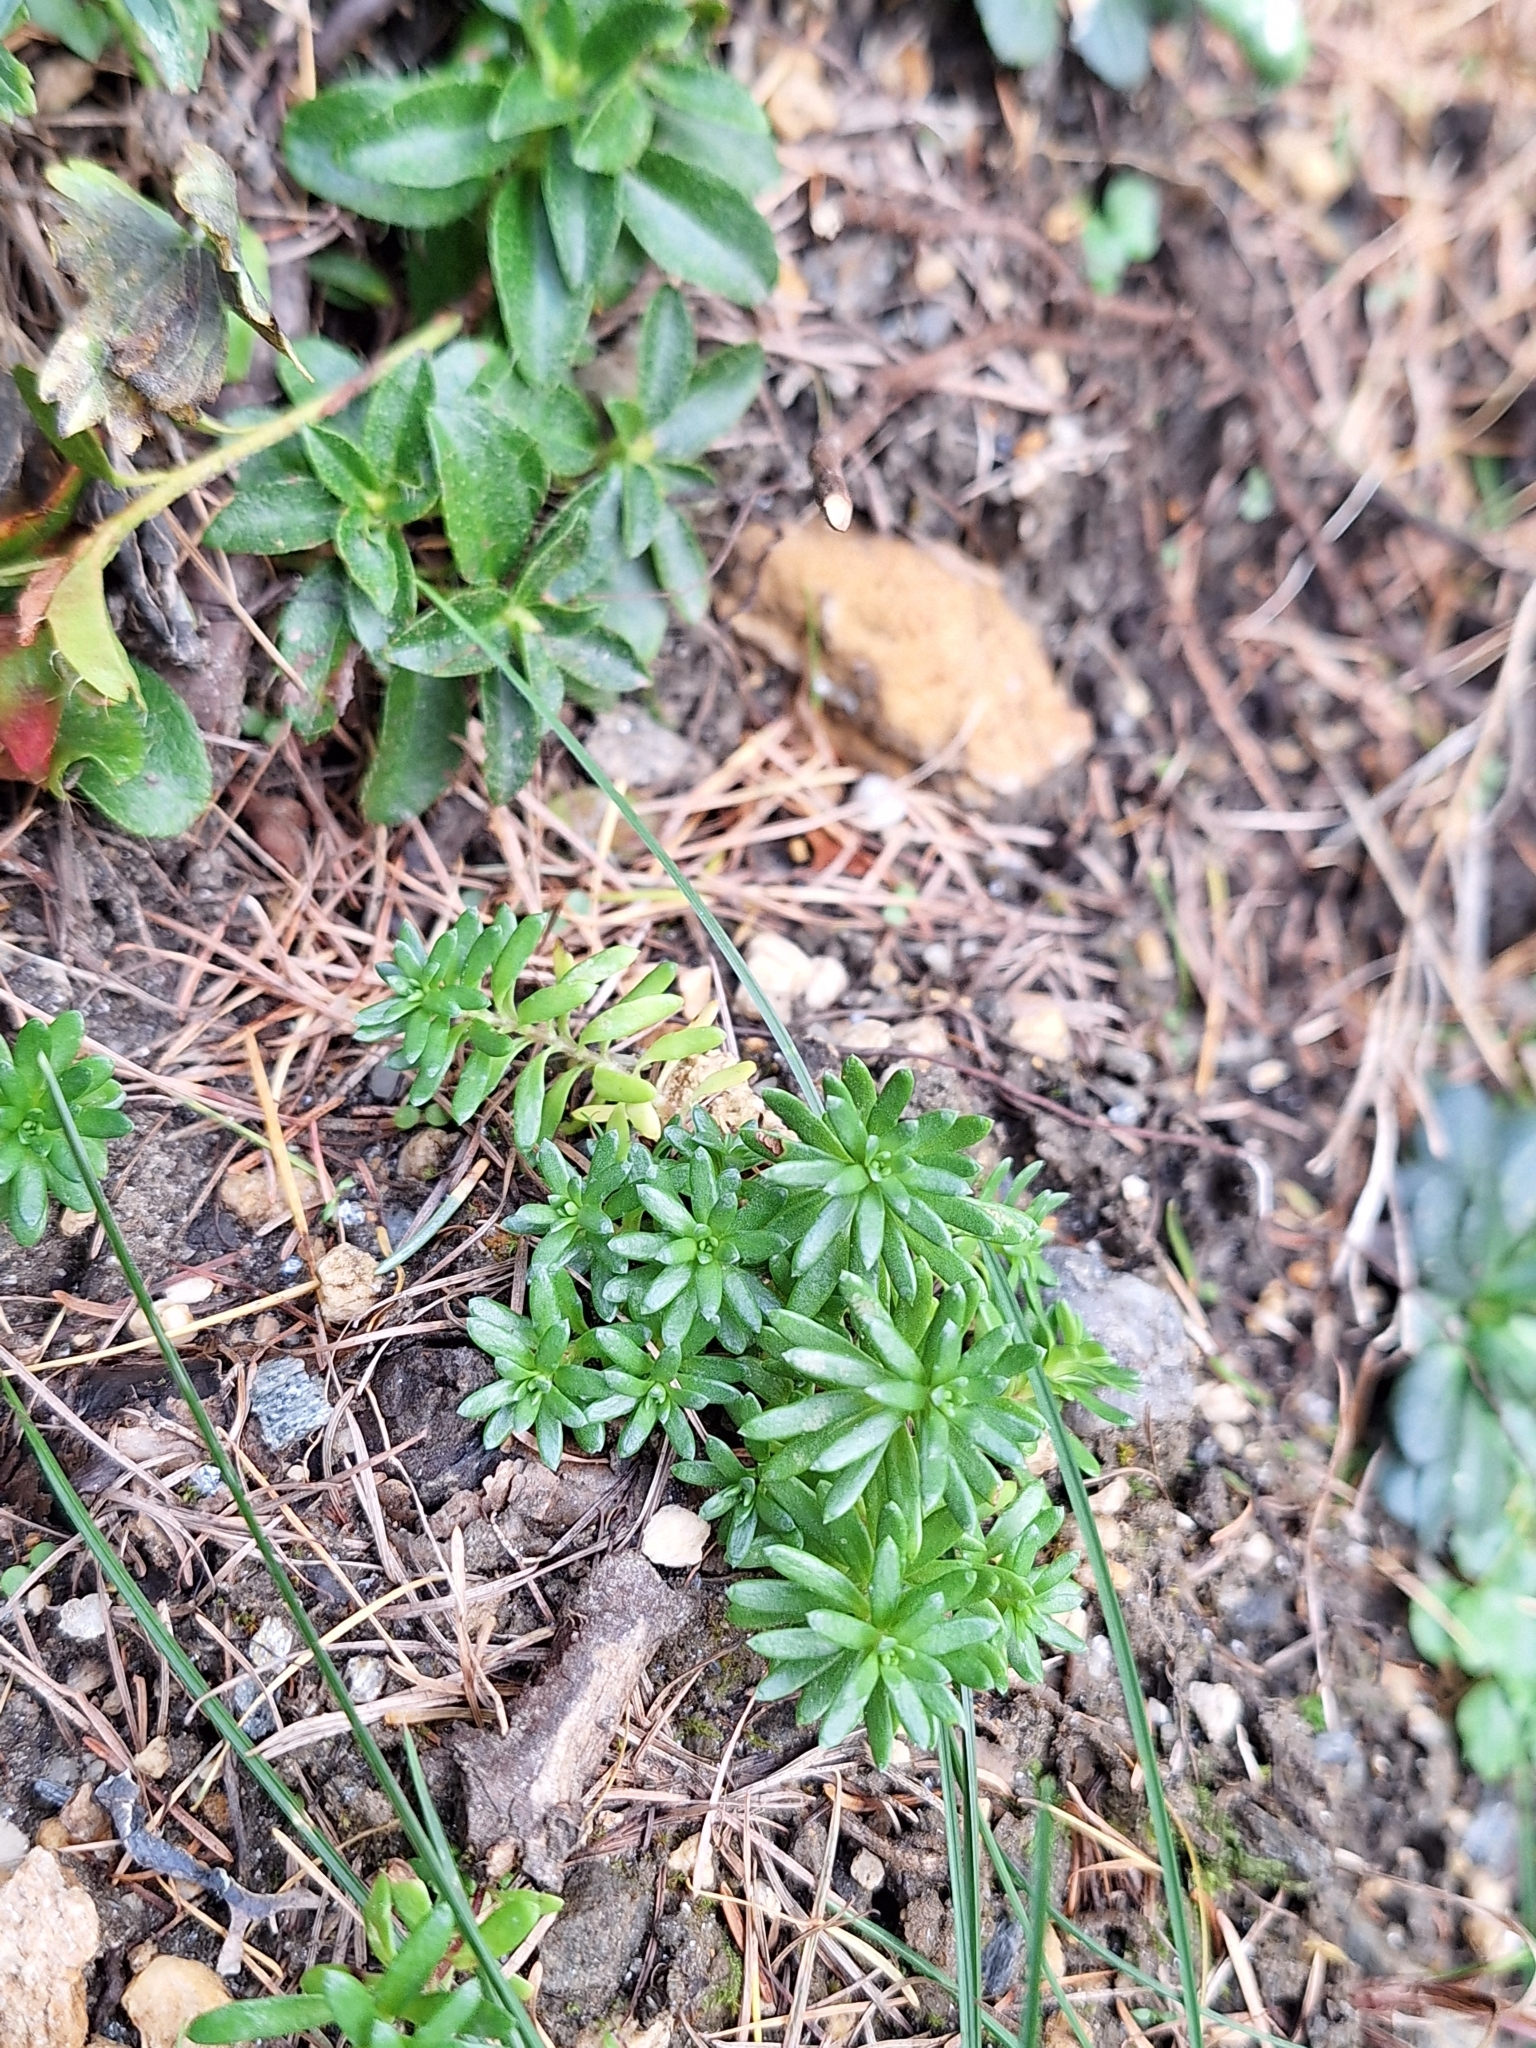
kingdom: Plantae
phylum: Tracheophyta
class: Magnoliopsida
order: Saxifragales
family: Saxifragaceae
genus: Saxifraga
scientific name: Saxifraga aizoides
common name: Yellow mountain saxifrage
